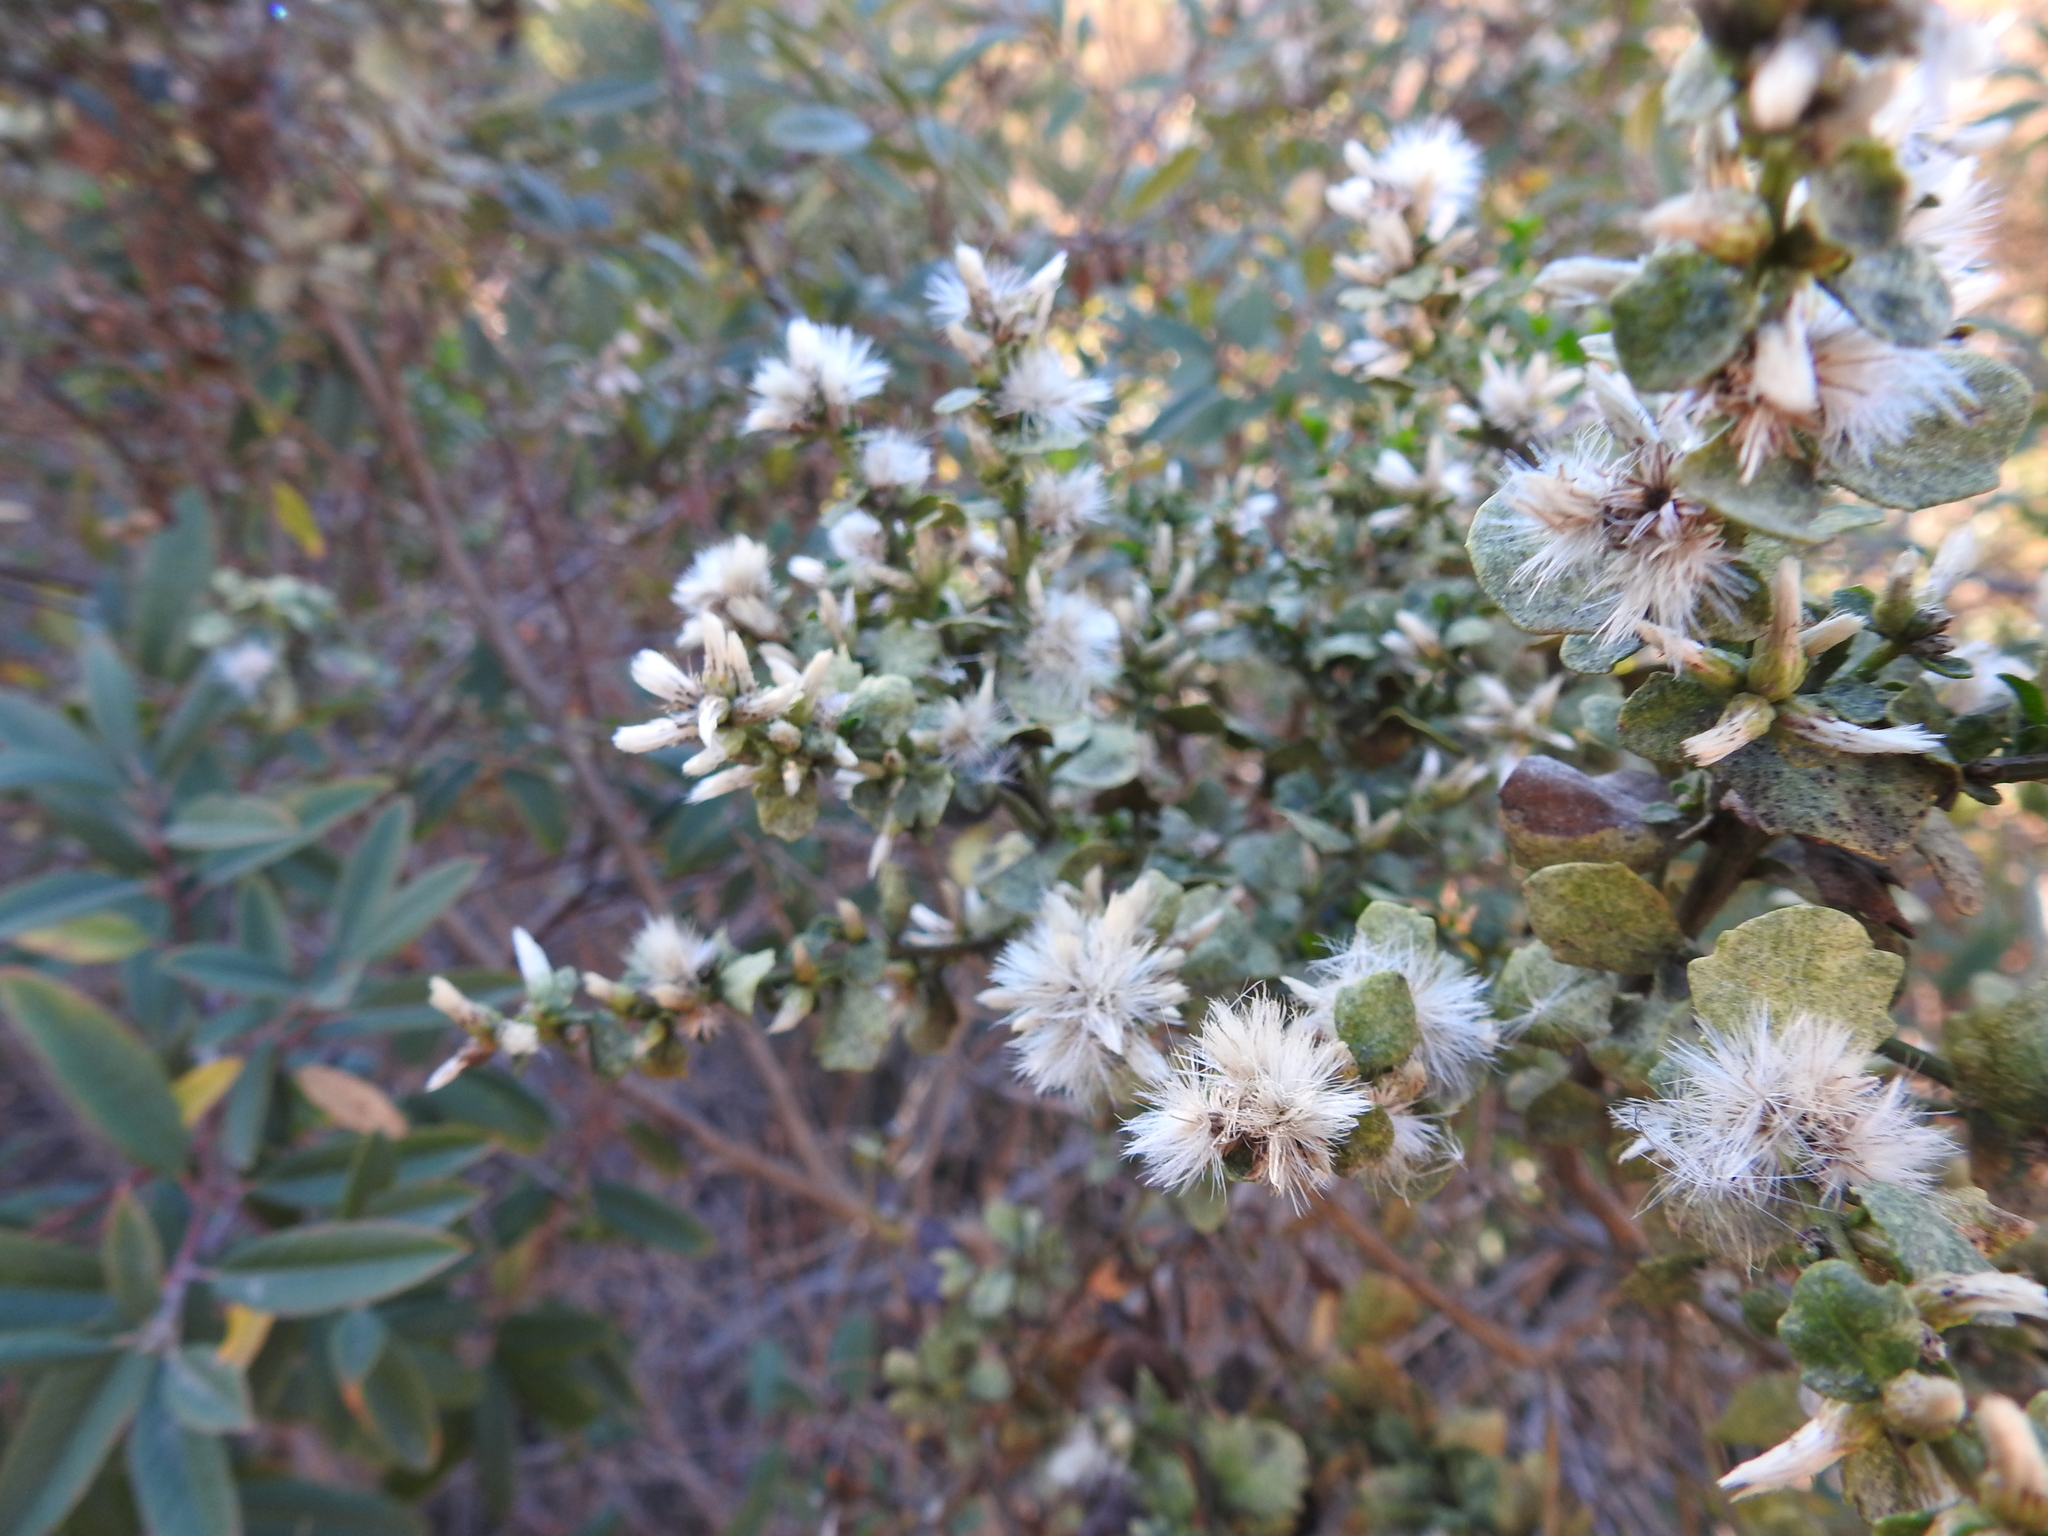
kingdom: Plantae
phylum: Tracheophyta
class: Magnoliopsida
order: Asterales
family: Asteraceae
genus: Baccharis
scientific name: Baccharis pilularis
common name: Coyotebrush
